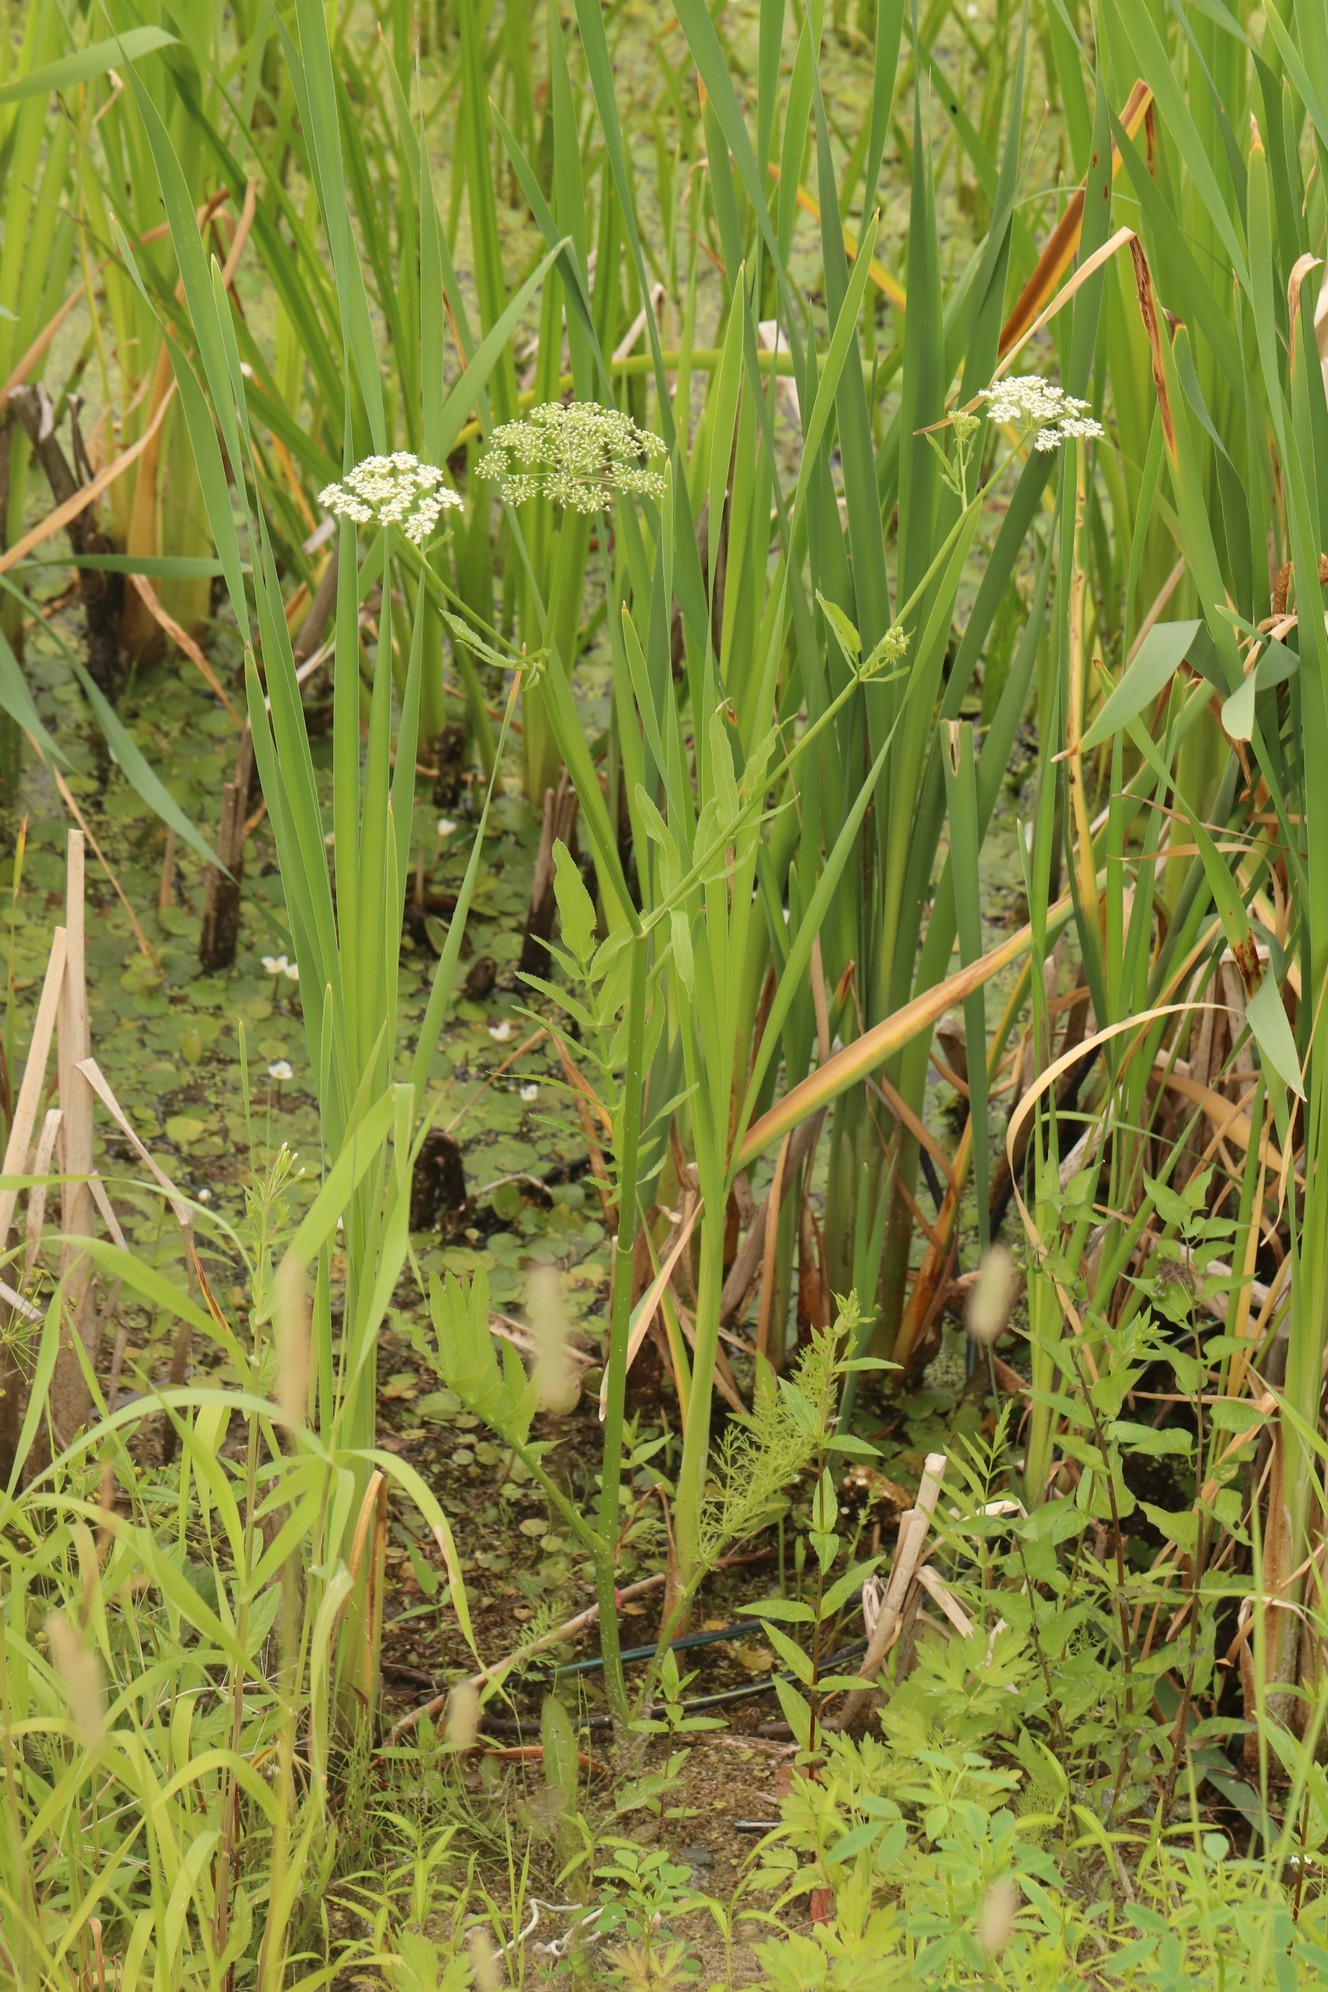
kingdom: Plantae
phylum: Tracheophyta
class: Magnoliopsida
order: Apiales
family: Apiaceae
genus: Sium
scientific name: Sium latifolium
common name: Greater water-parsnip
